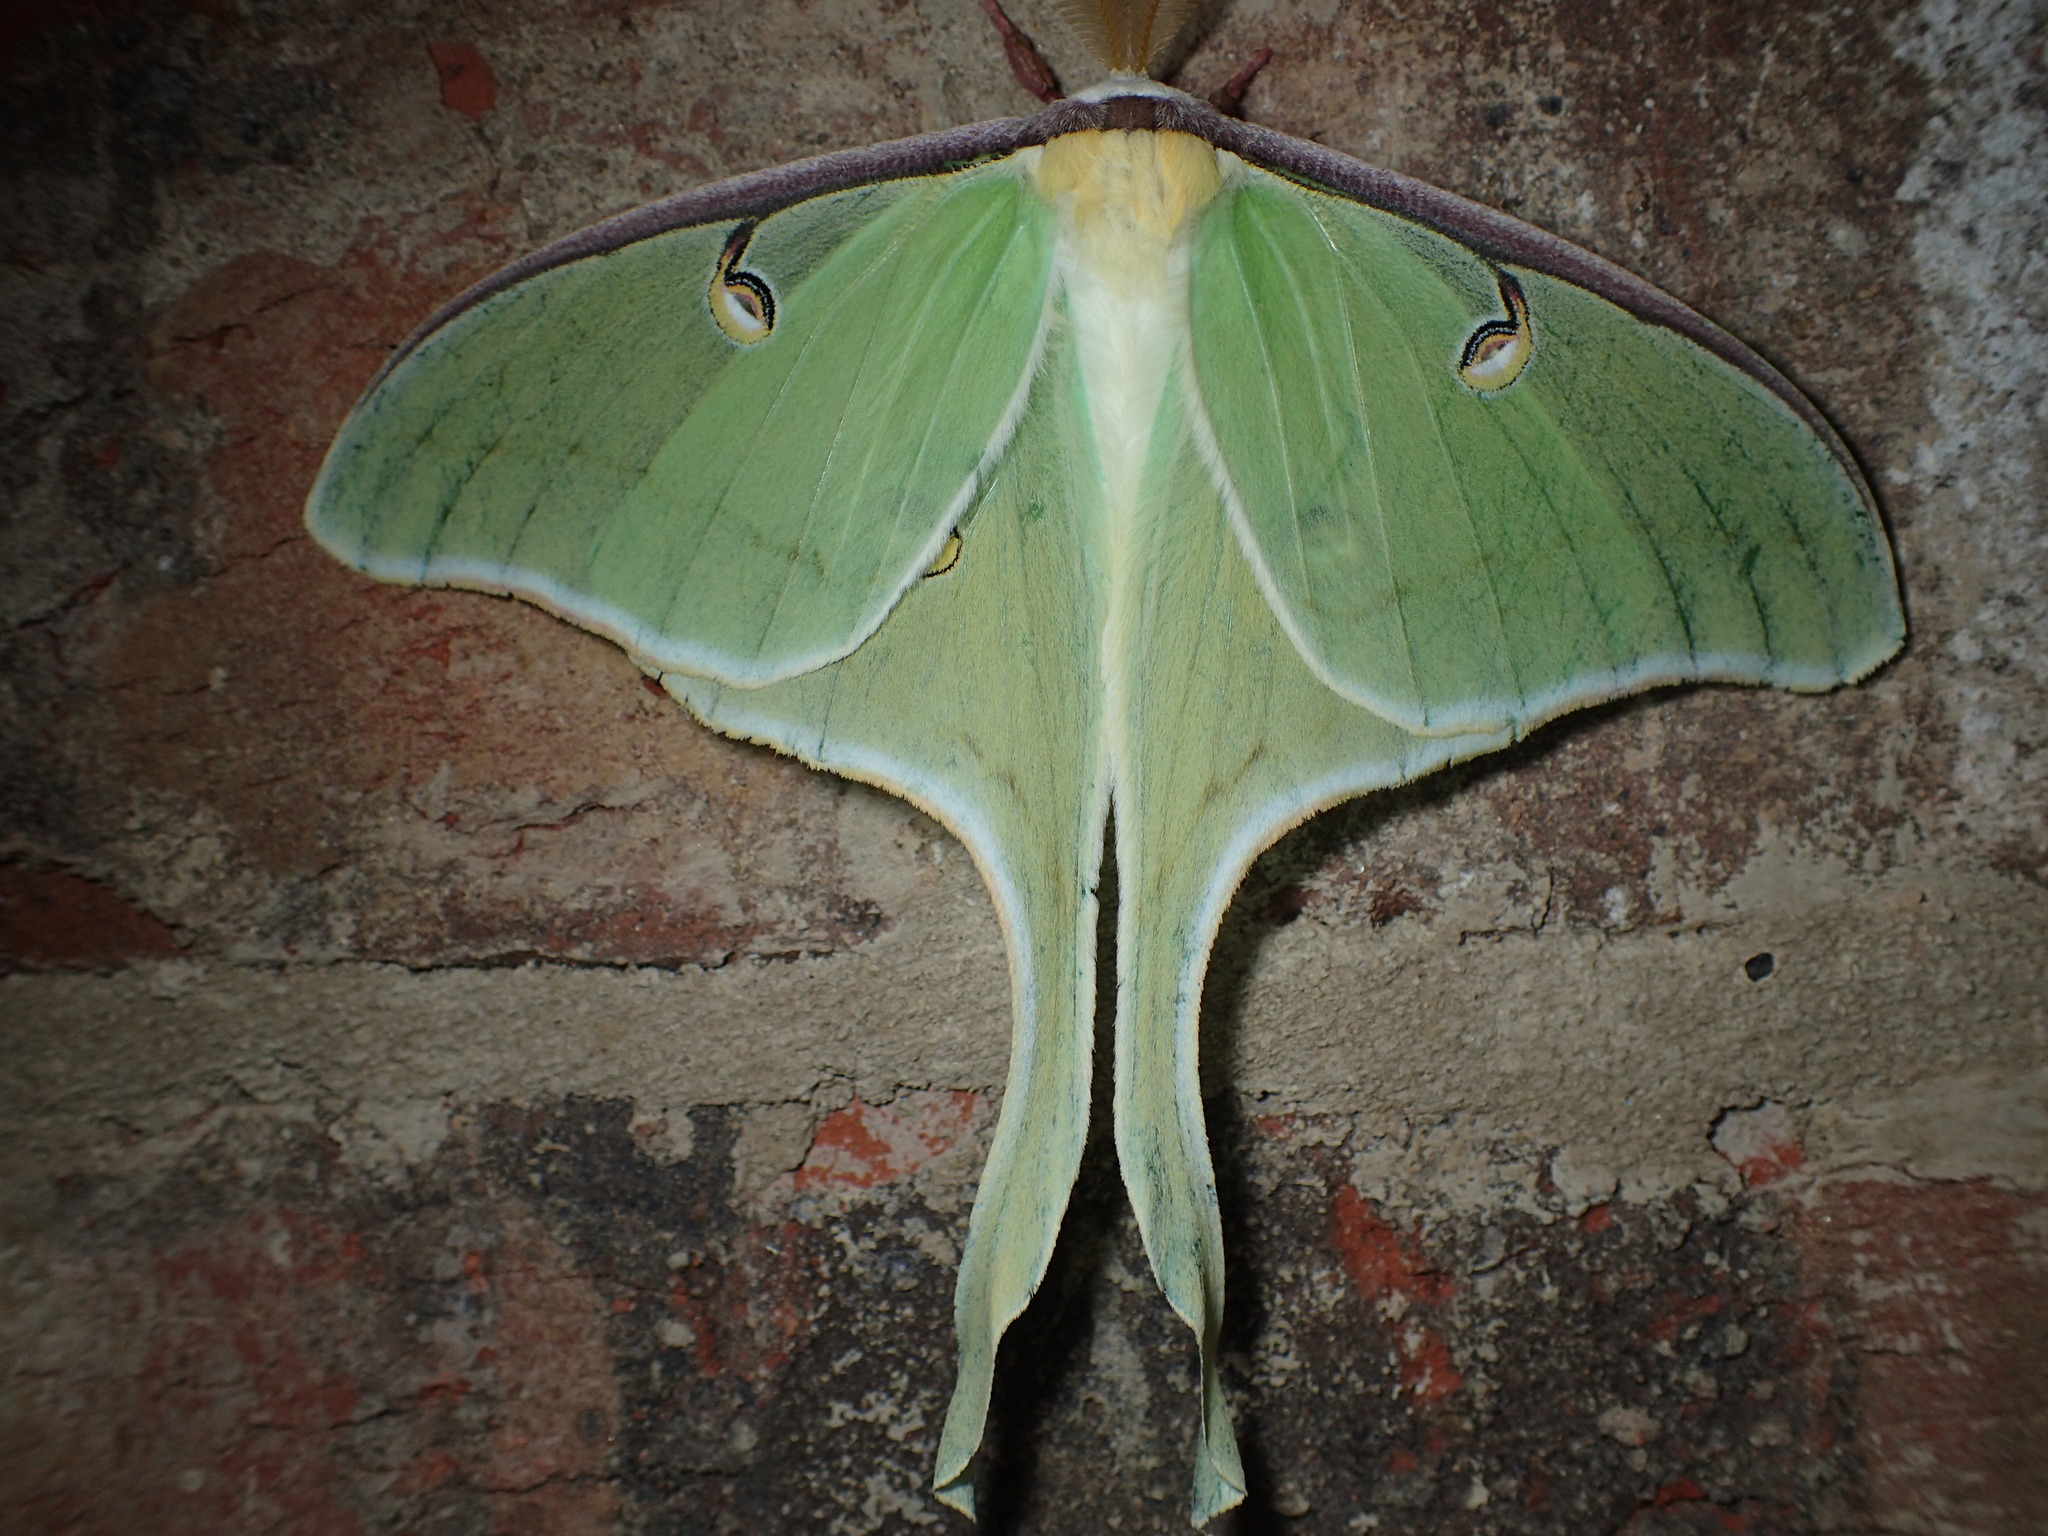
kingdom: Animalia
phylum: Arthropoda
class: Insecta
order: Lepidoptera
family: Saturniidae
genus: Actias
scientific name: Actias luna
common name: Luna moth
